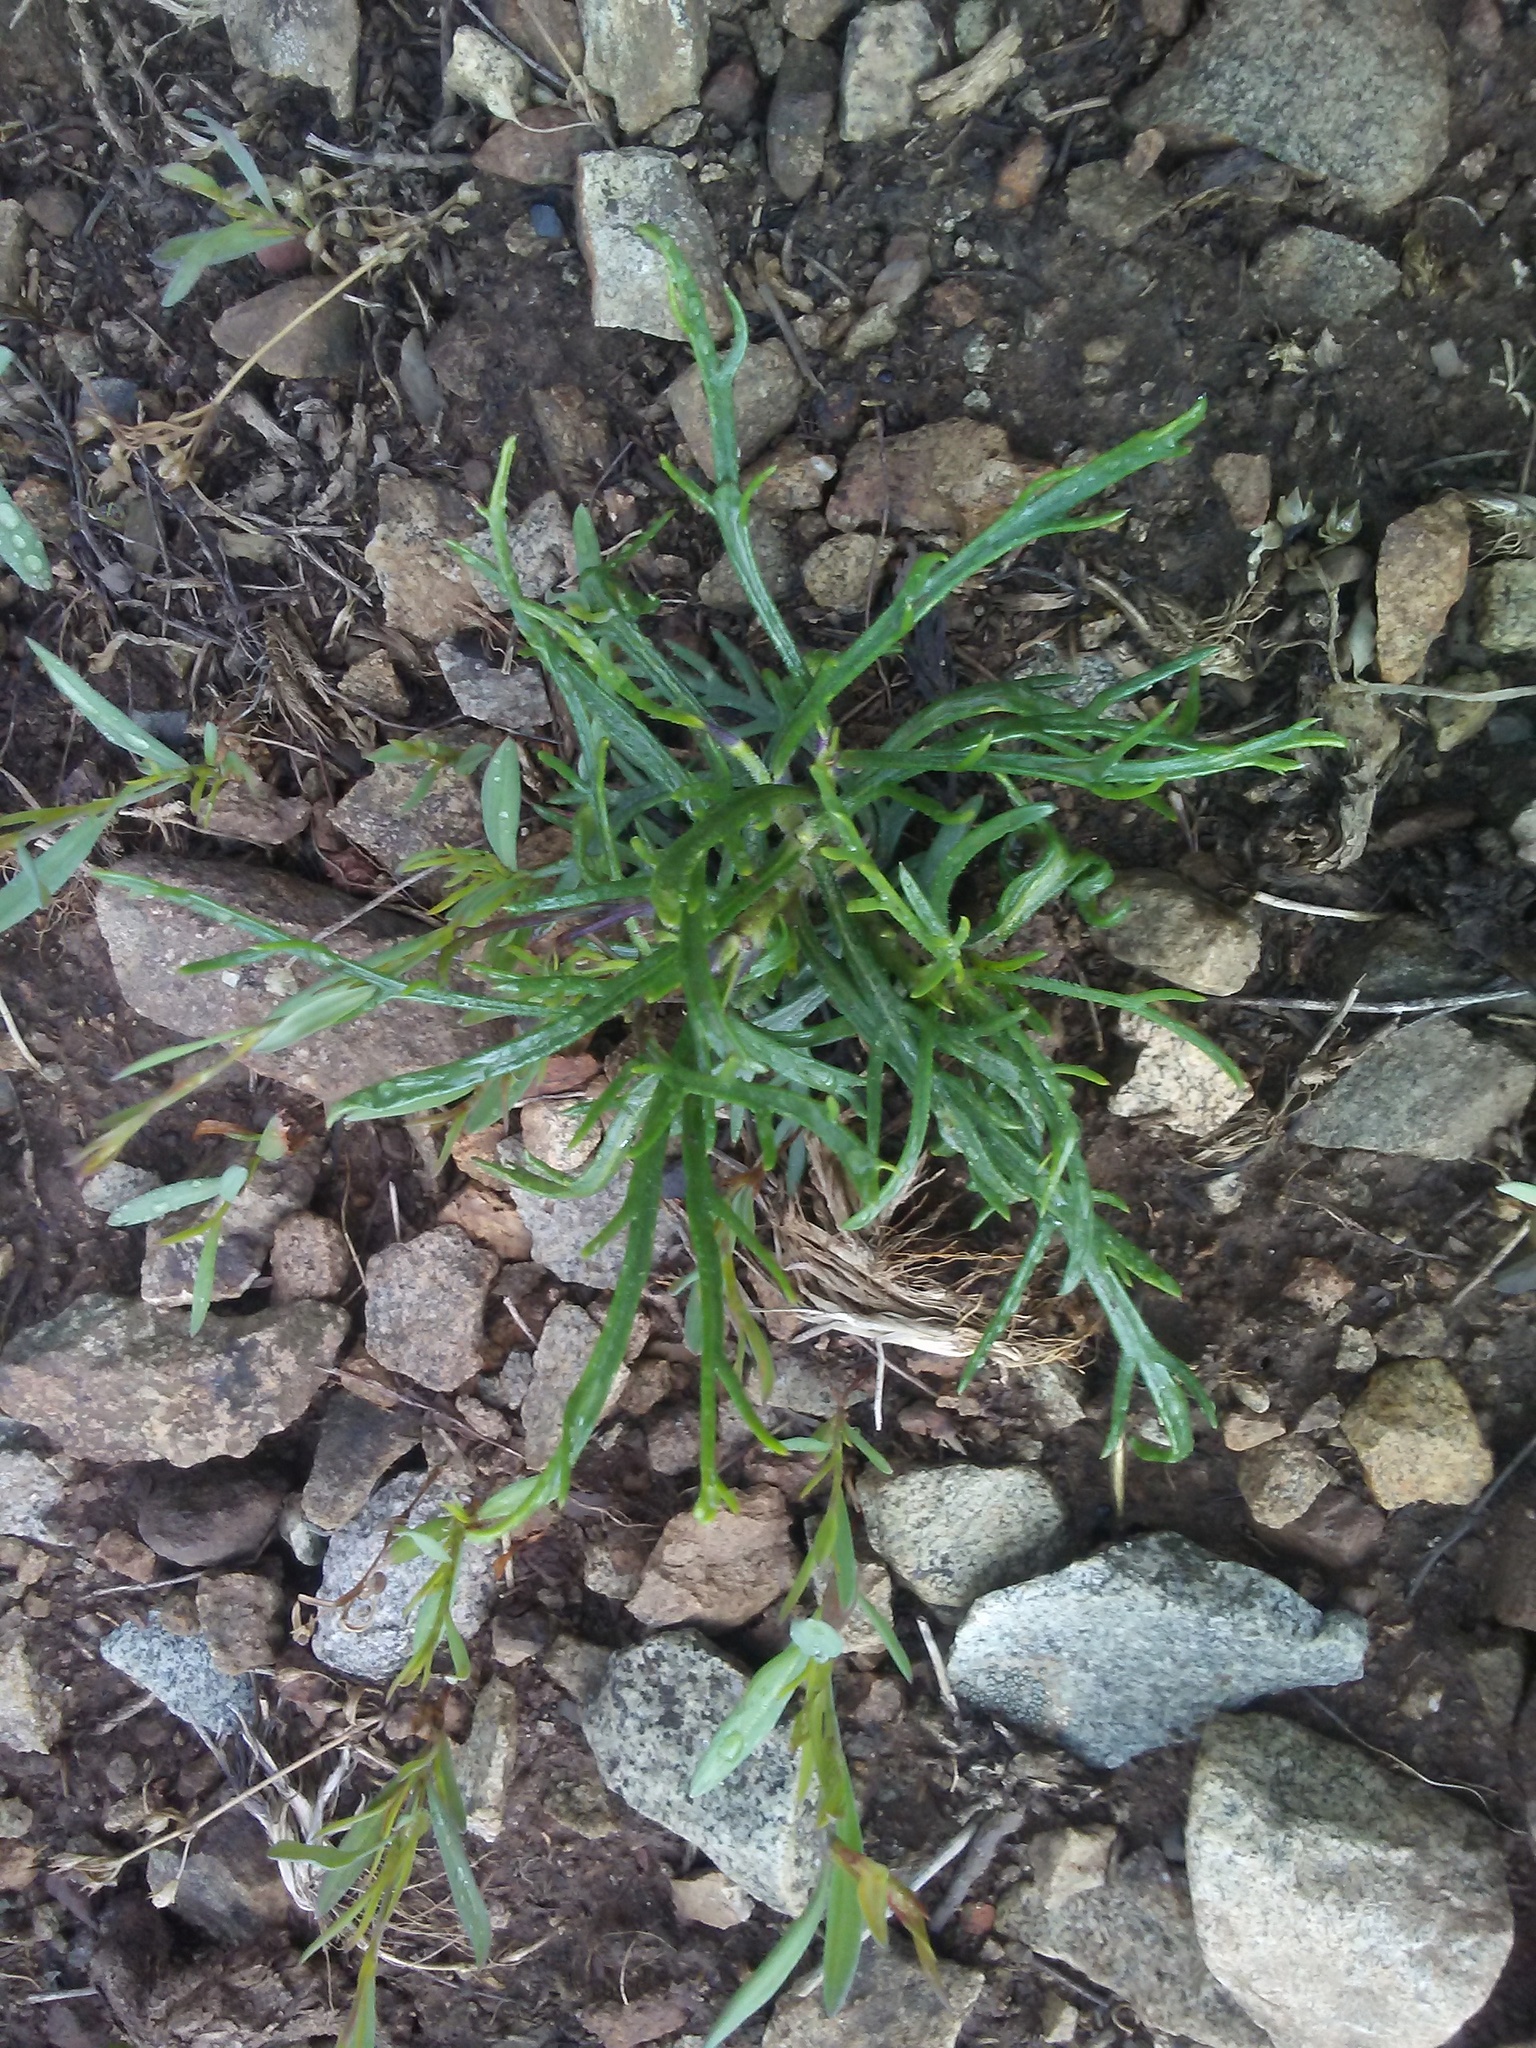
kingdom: Plantae
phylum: Tracheophyta
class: Magnoliopsida
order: Ericales
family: Polemoniaceae
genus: Ipomopsis
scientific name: Ipomopsis aggregata
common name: Scarlet gilia
